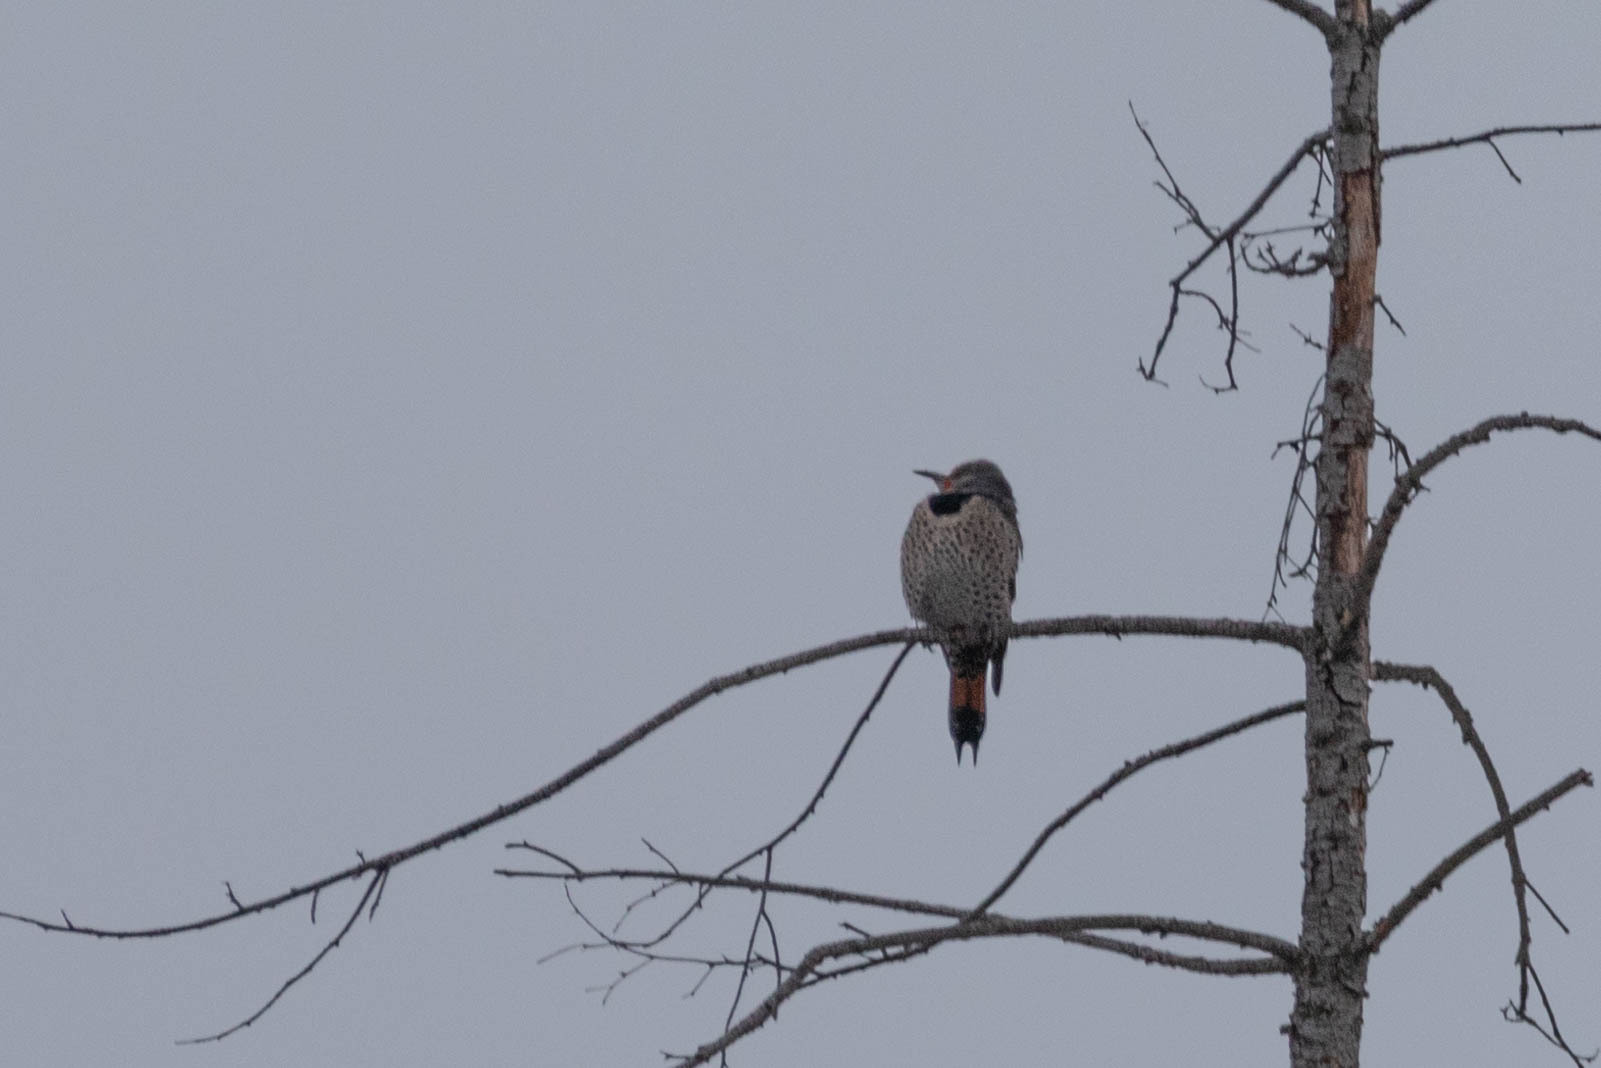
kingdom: Animalia
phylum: Chordata
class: Aves
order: Piciformes
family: Picidae
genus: Colaptes
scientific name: Colaptes auratus
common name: Northern flicker
